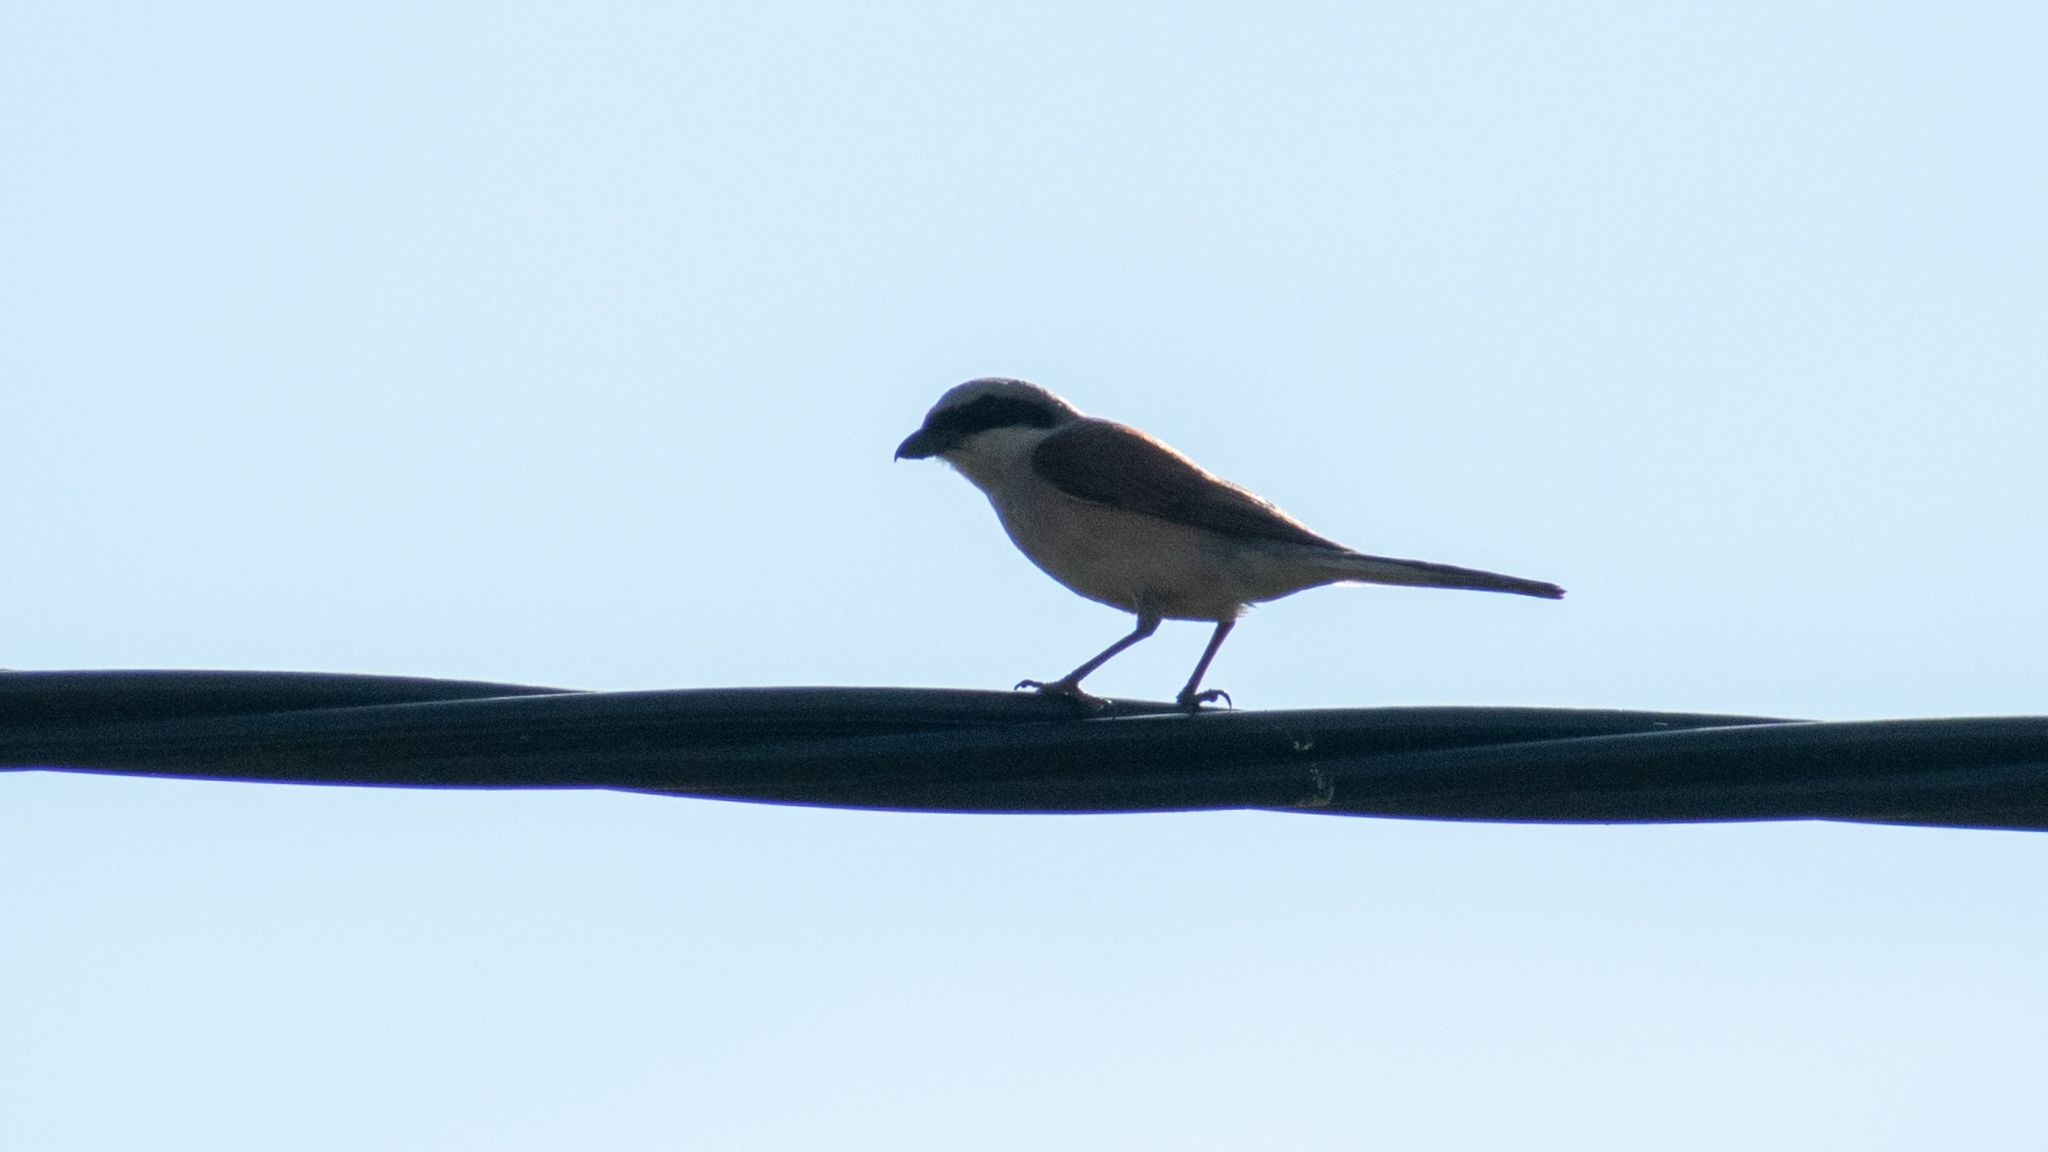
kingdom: Animalia
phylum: Chordata
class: Aves
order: Passeriformes
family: Laniidae
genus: Lanius
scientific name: Lanius collurio
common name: Red-backed shrike
